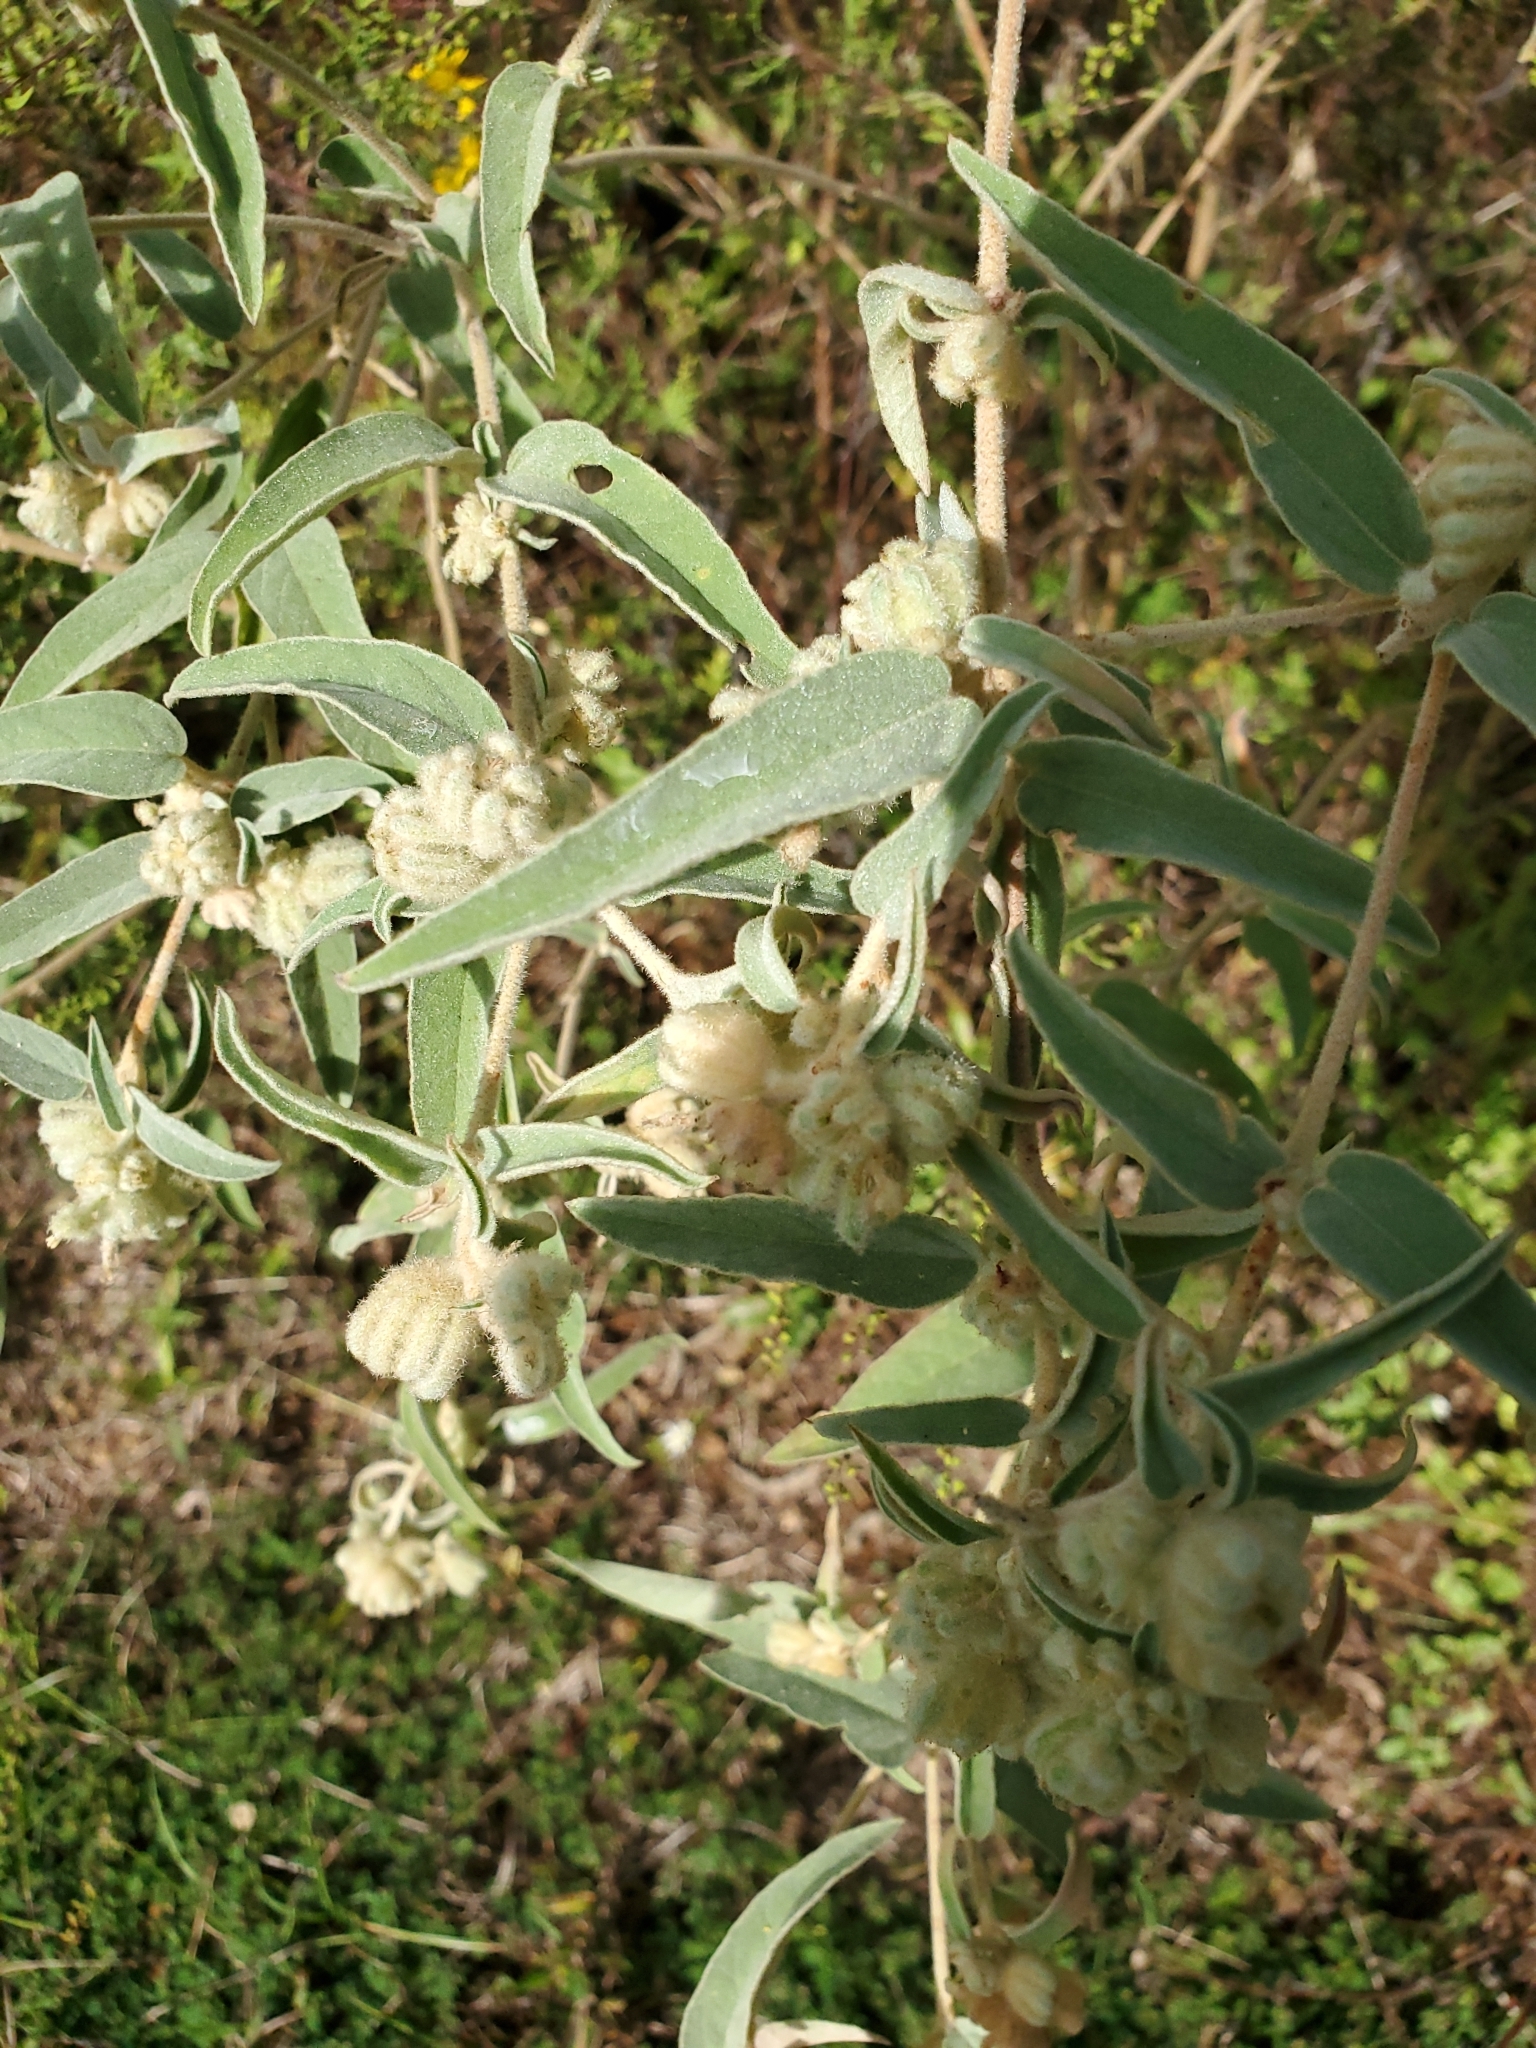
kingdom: Plantae
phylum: Tracheophyta
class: Magnoliopsida
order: Malpighiales
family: Euphorbiaceae
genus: Croton
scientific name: Croton lindheimeri
